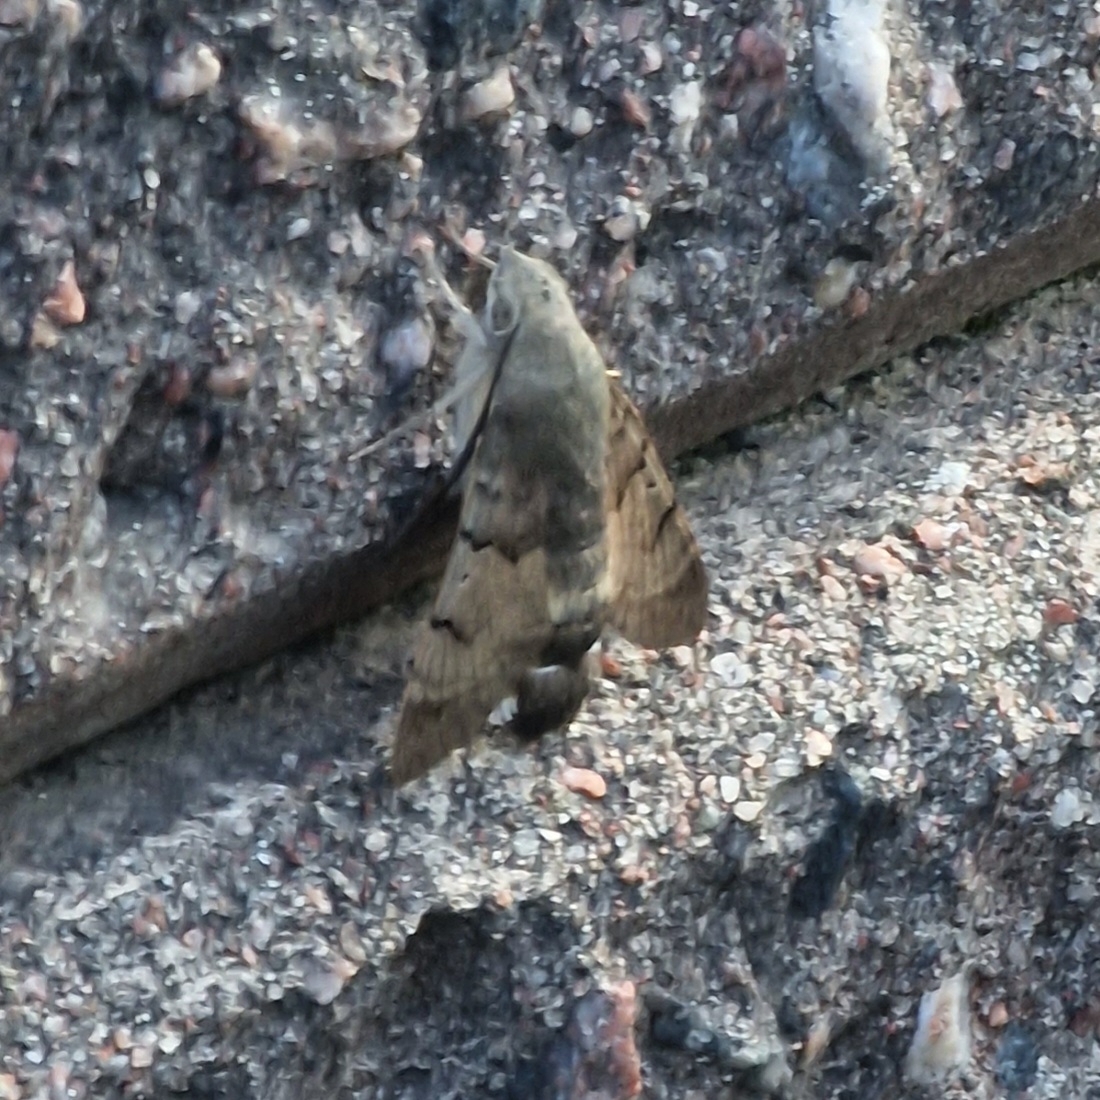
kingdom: Animalia
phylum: Arthropoda
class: Insecta
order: Lepidoptera
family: Sphingidae
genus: Macroglossum
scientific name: Macroglossum stellatarum
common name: Humming-bird hawk-moth
